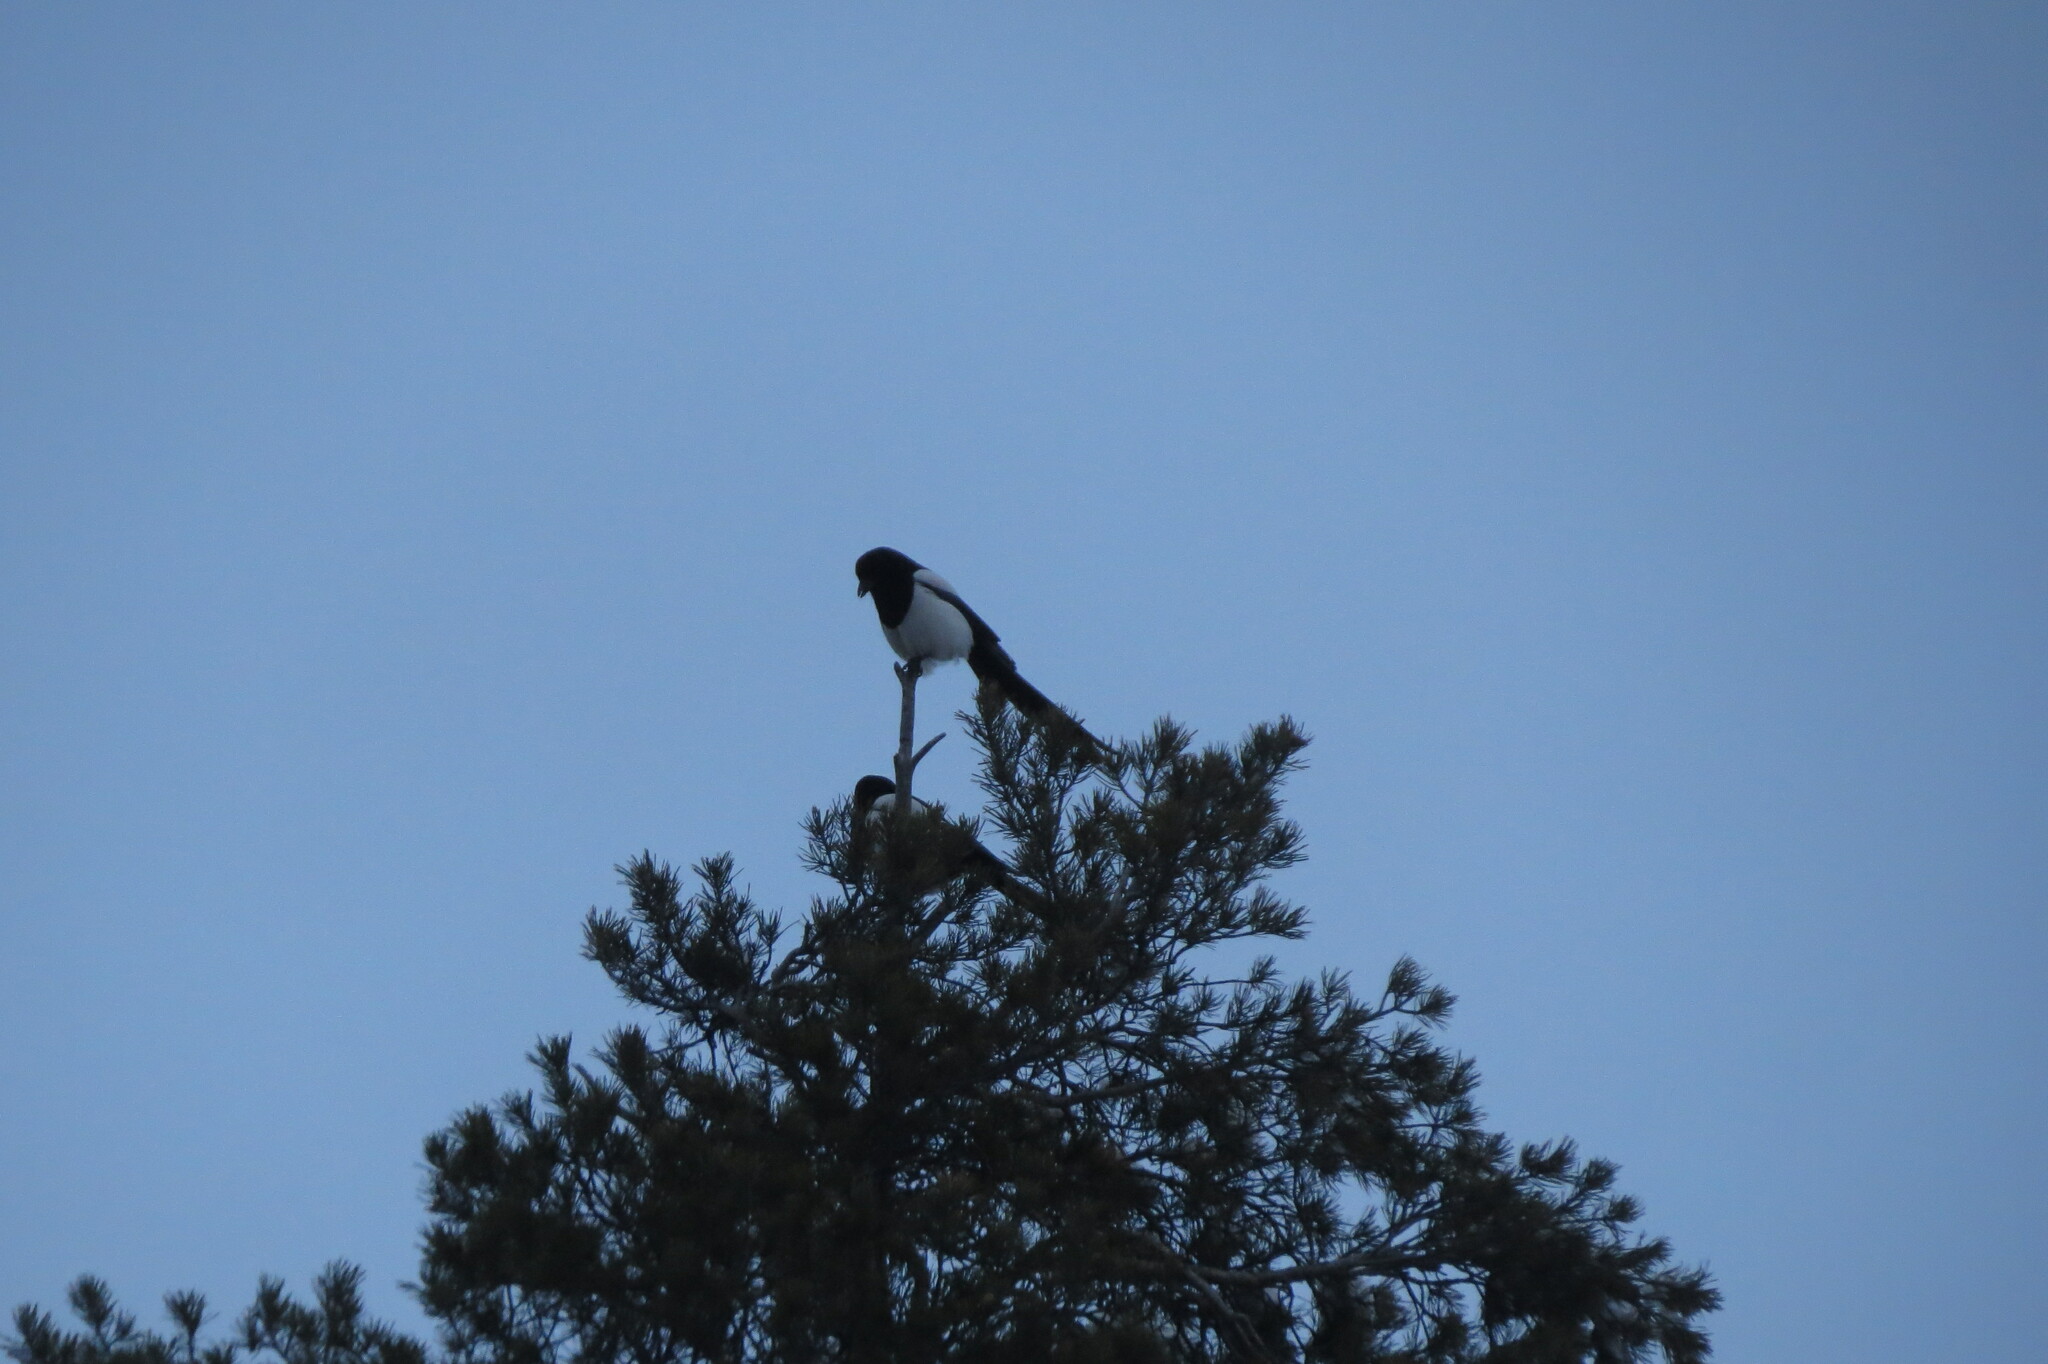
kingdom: Animalia
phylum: Chordata
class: Aves
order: Passeriformes
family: Corvidae
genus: Pica
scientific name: Pica pica
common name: Eurasian magpie
